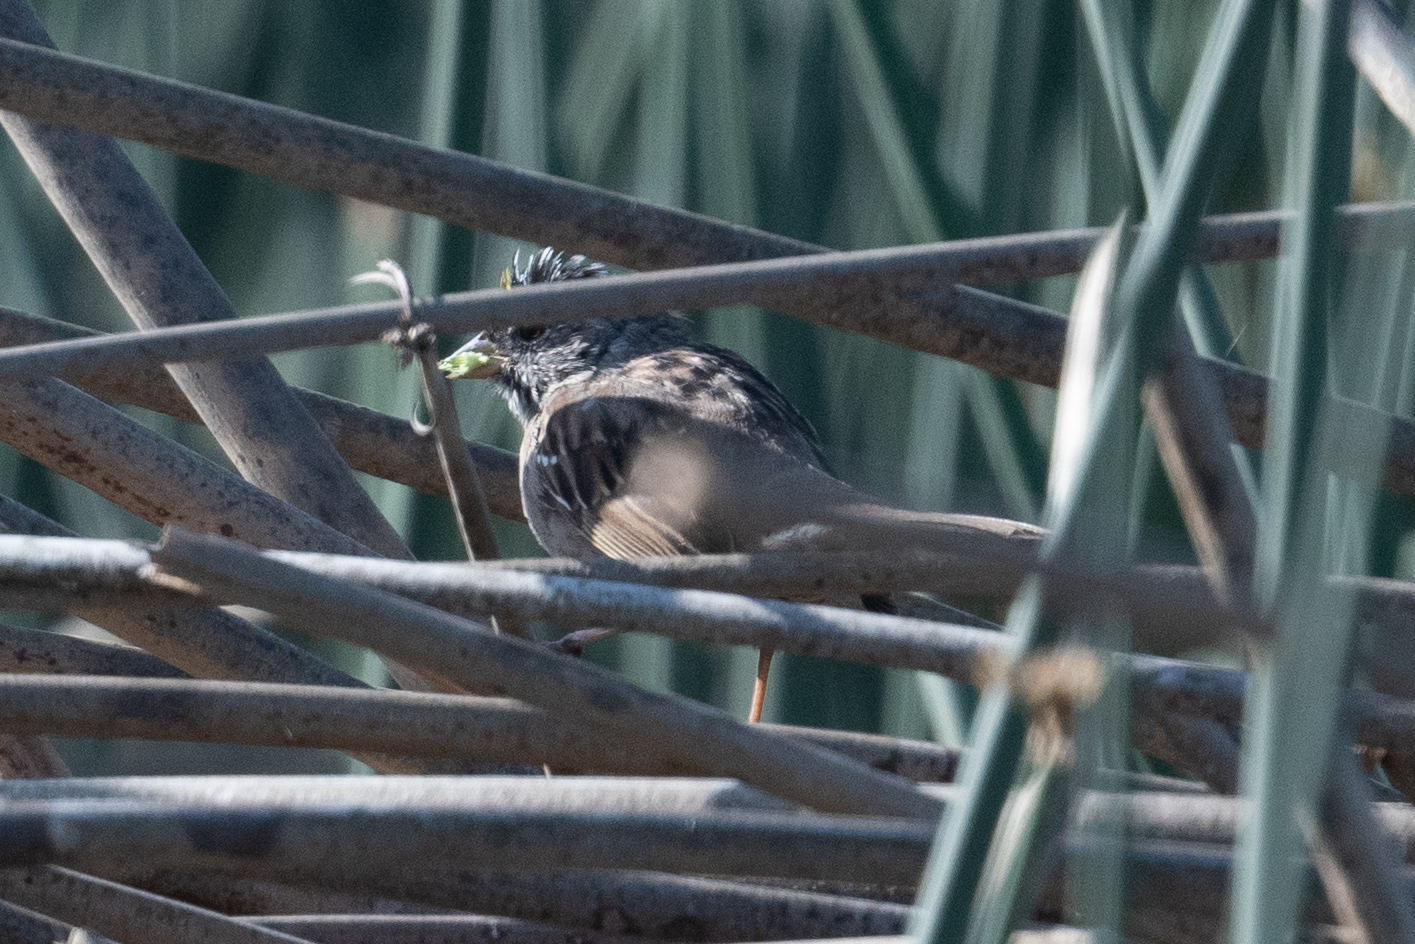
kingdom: Animalia
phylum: Chordata
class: Aves
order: Passeriformes
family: Passerellidae
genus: Zonotrichia
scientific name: Zonotrichia atricapilla
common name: Golden-crowned sparrow
